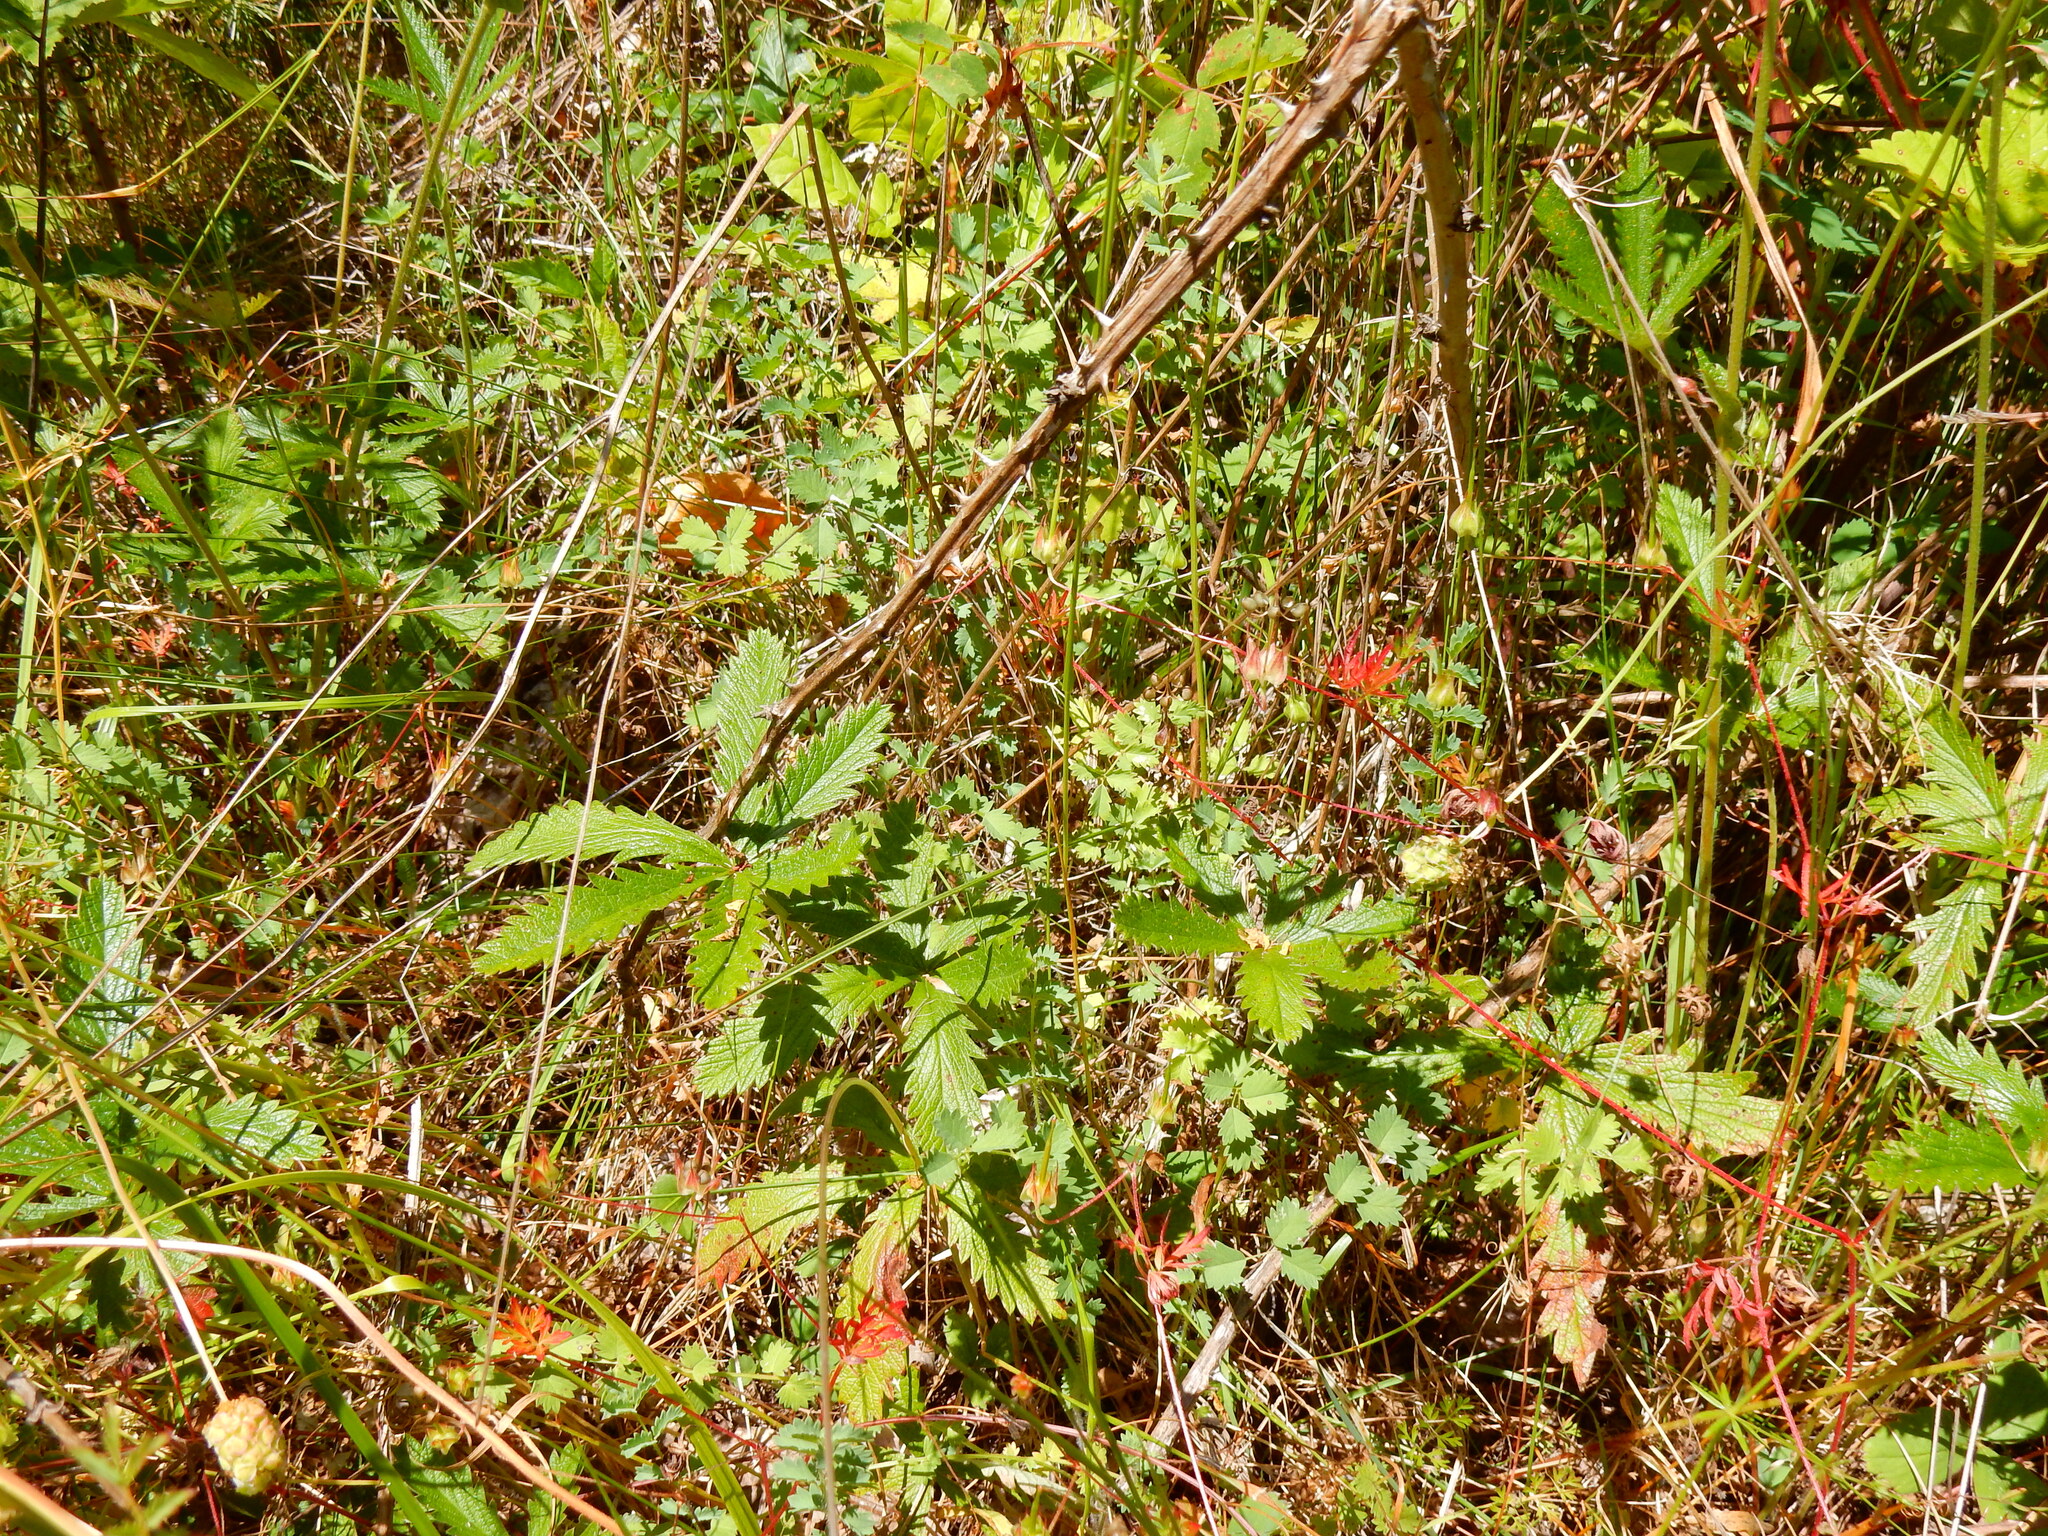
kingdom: Plantae
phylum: Tracheophyta
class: Magnoliopsida
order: Rosales
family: Rosaceae
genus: Potentilla
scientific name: Potentilla gracilis
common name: Graceful cinquefoil
